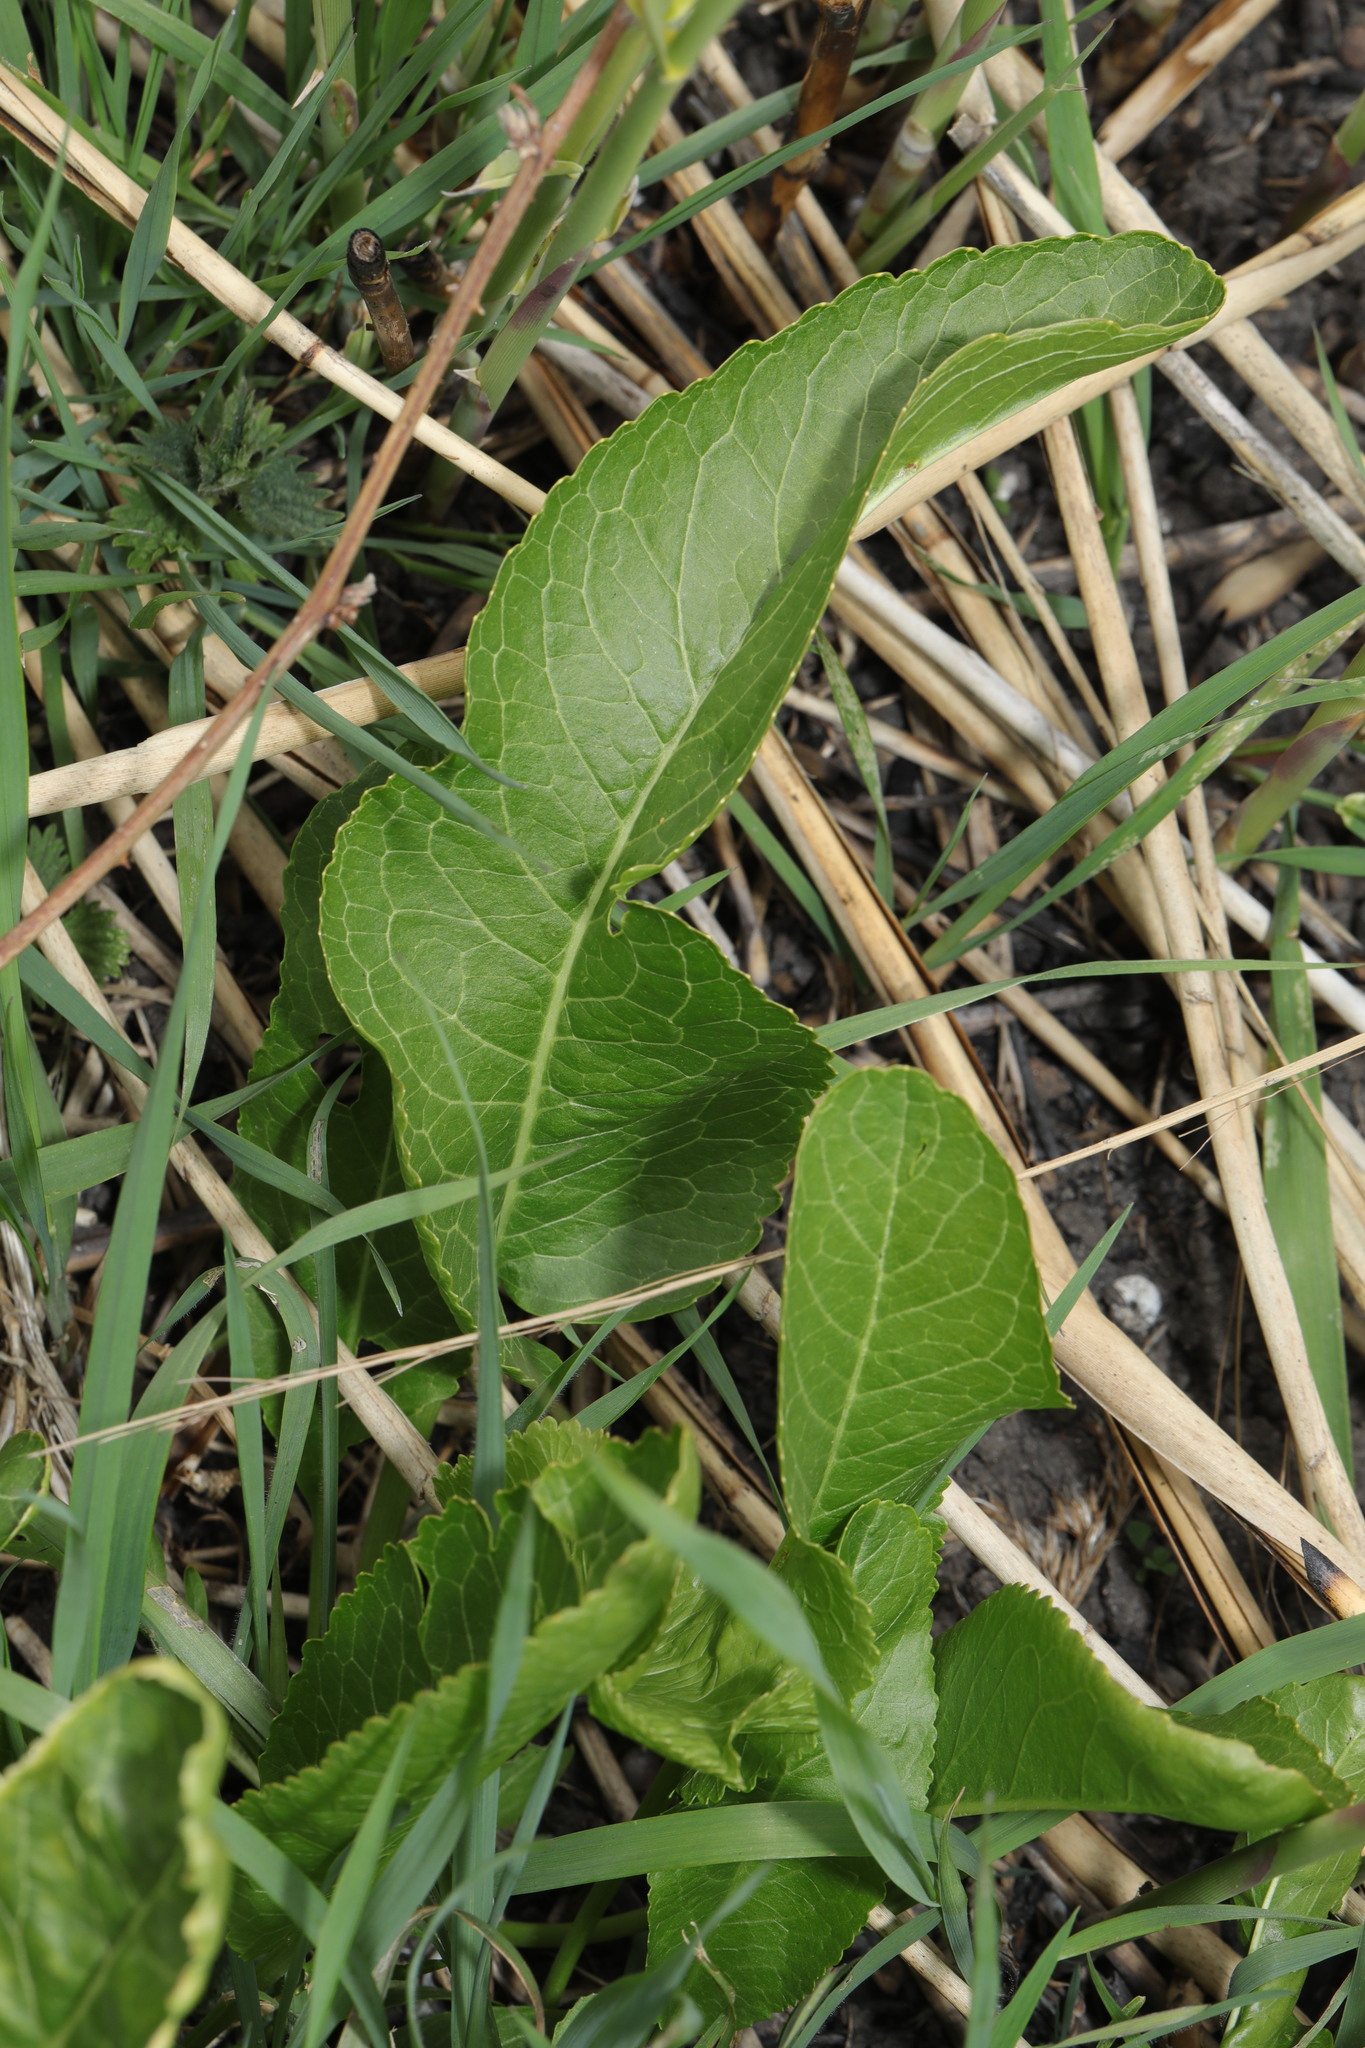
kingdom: Plantae
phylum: Tracheophyta
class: Magnoliopsida
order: Brassicales
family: Brassicaceae
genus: Armoracia
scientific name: Armoracia rusticana
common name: Horseradish
